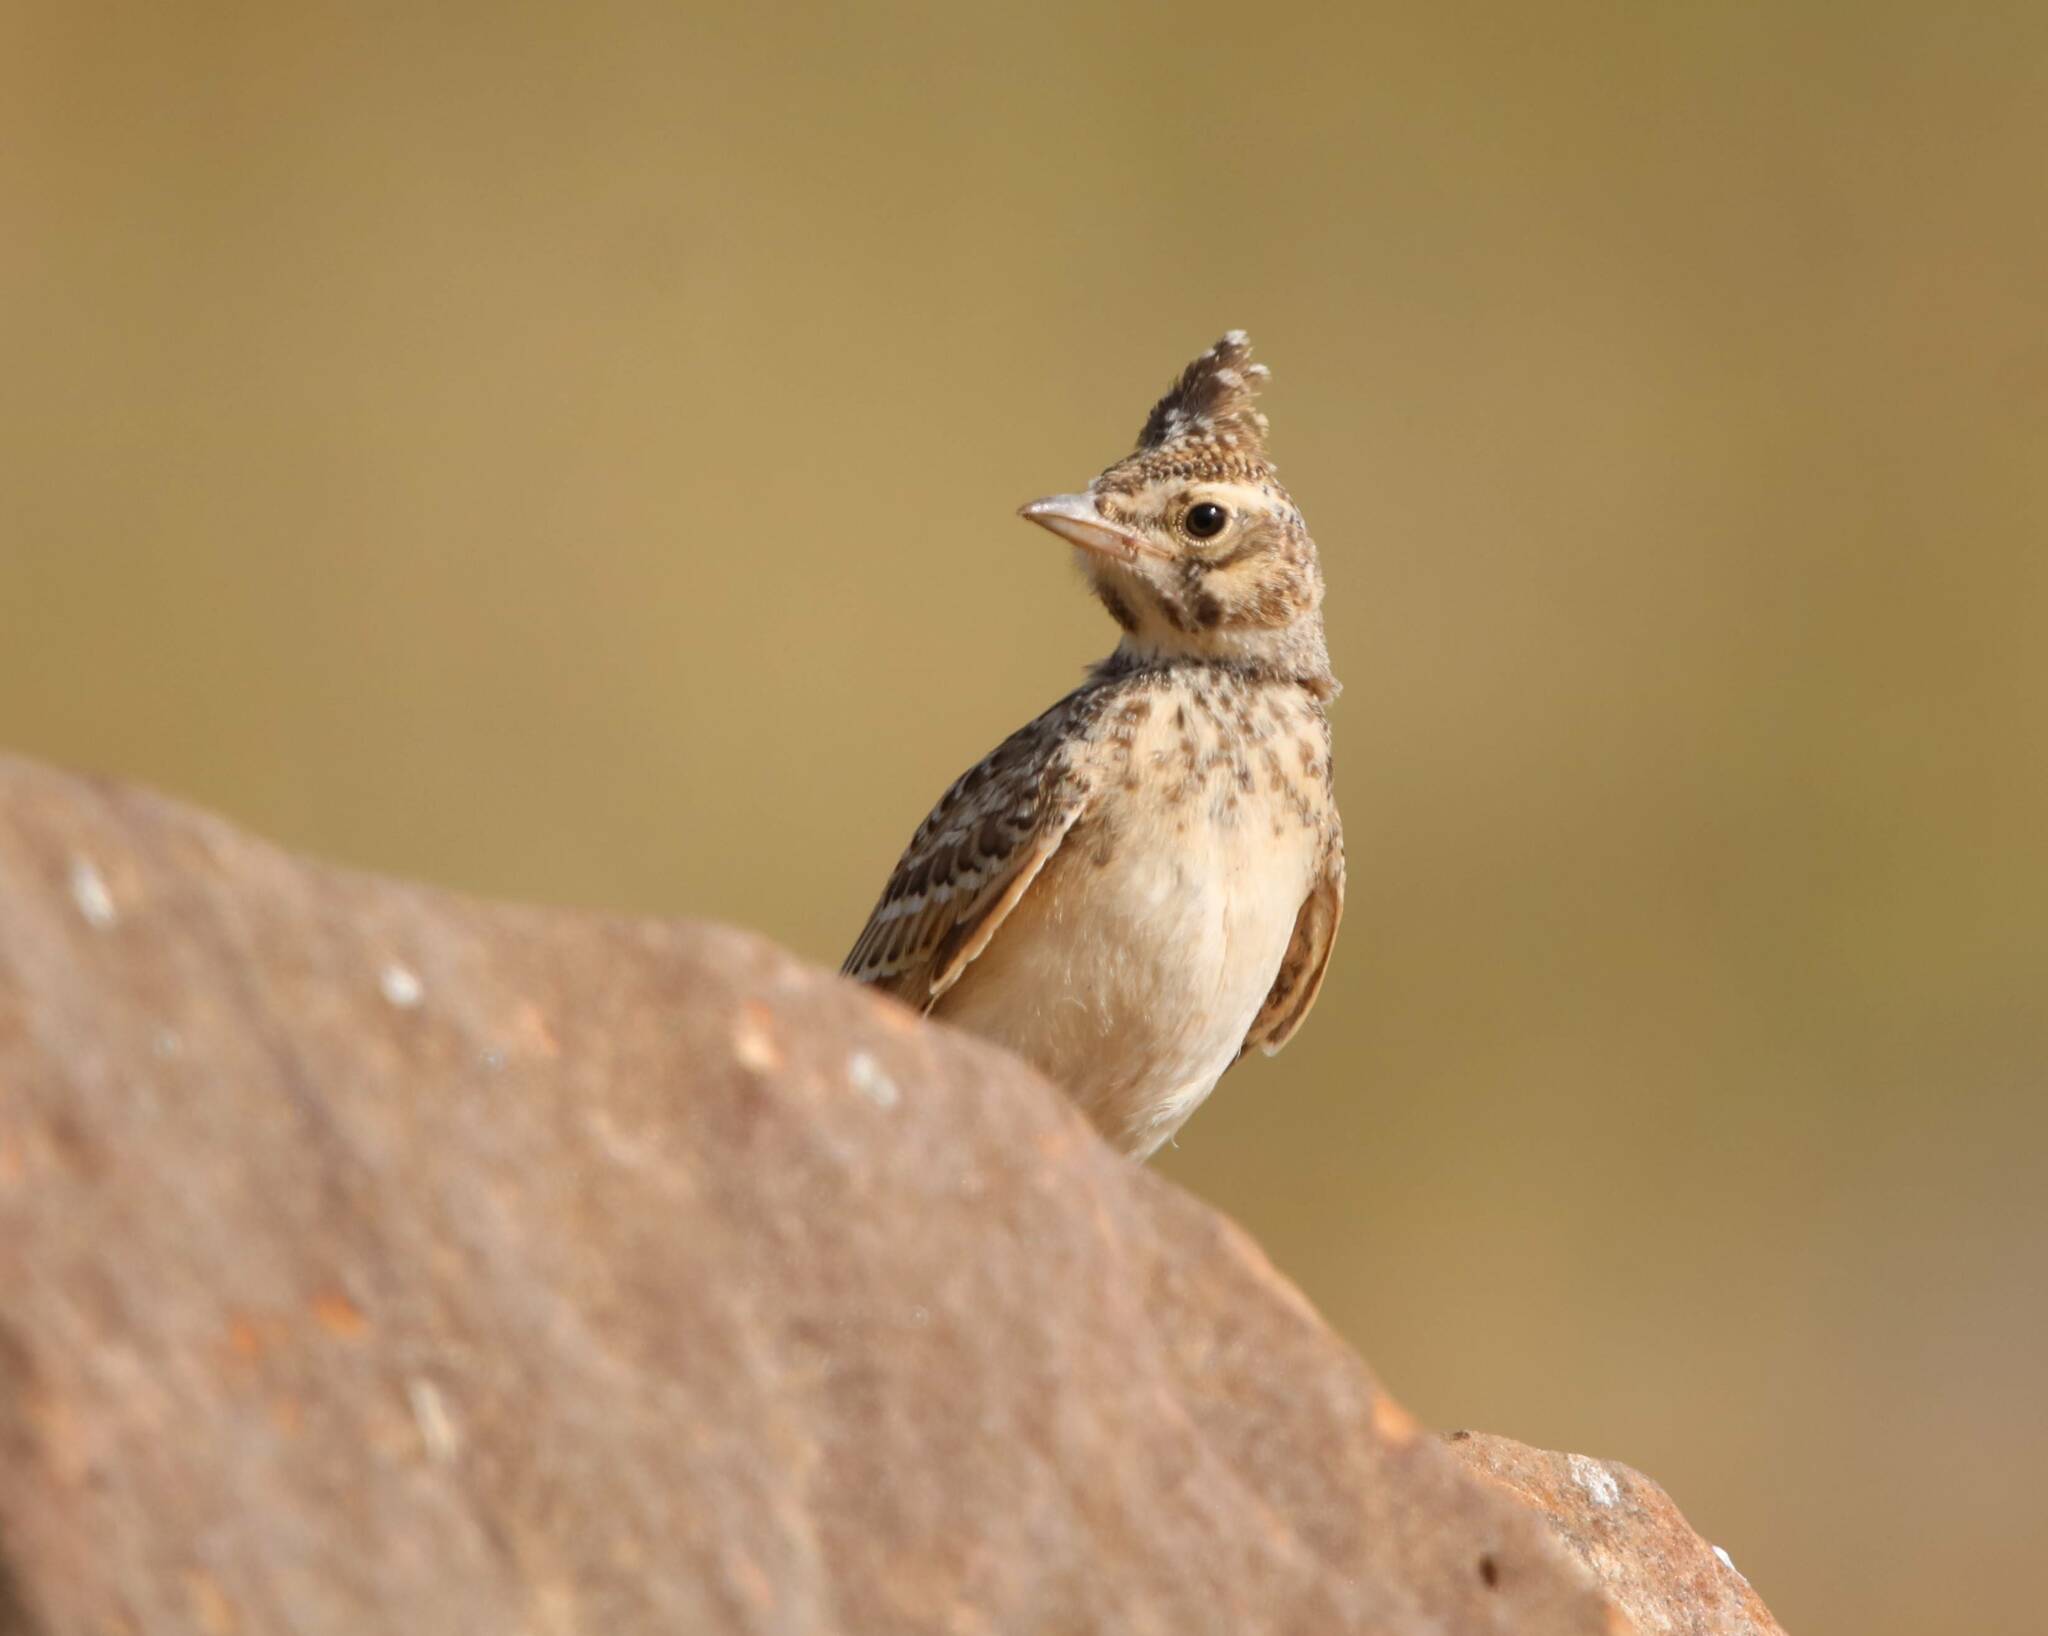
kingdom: Animalia
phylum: Chordata
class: Aves
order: Passeriformes
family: Alaudidae
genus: Galerida
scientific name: Galerida cristata
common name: Crested lark
